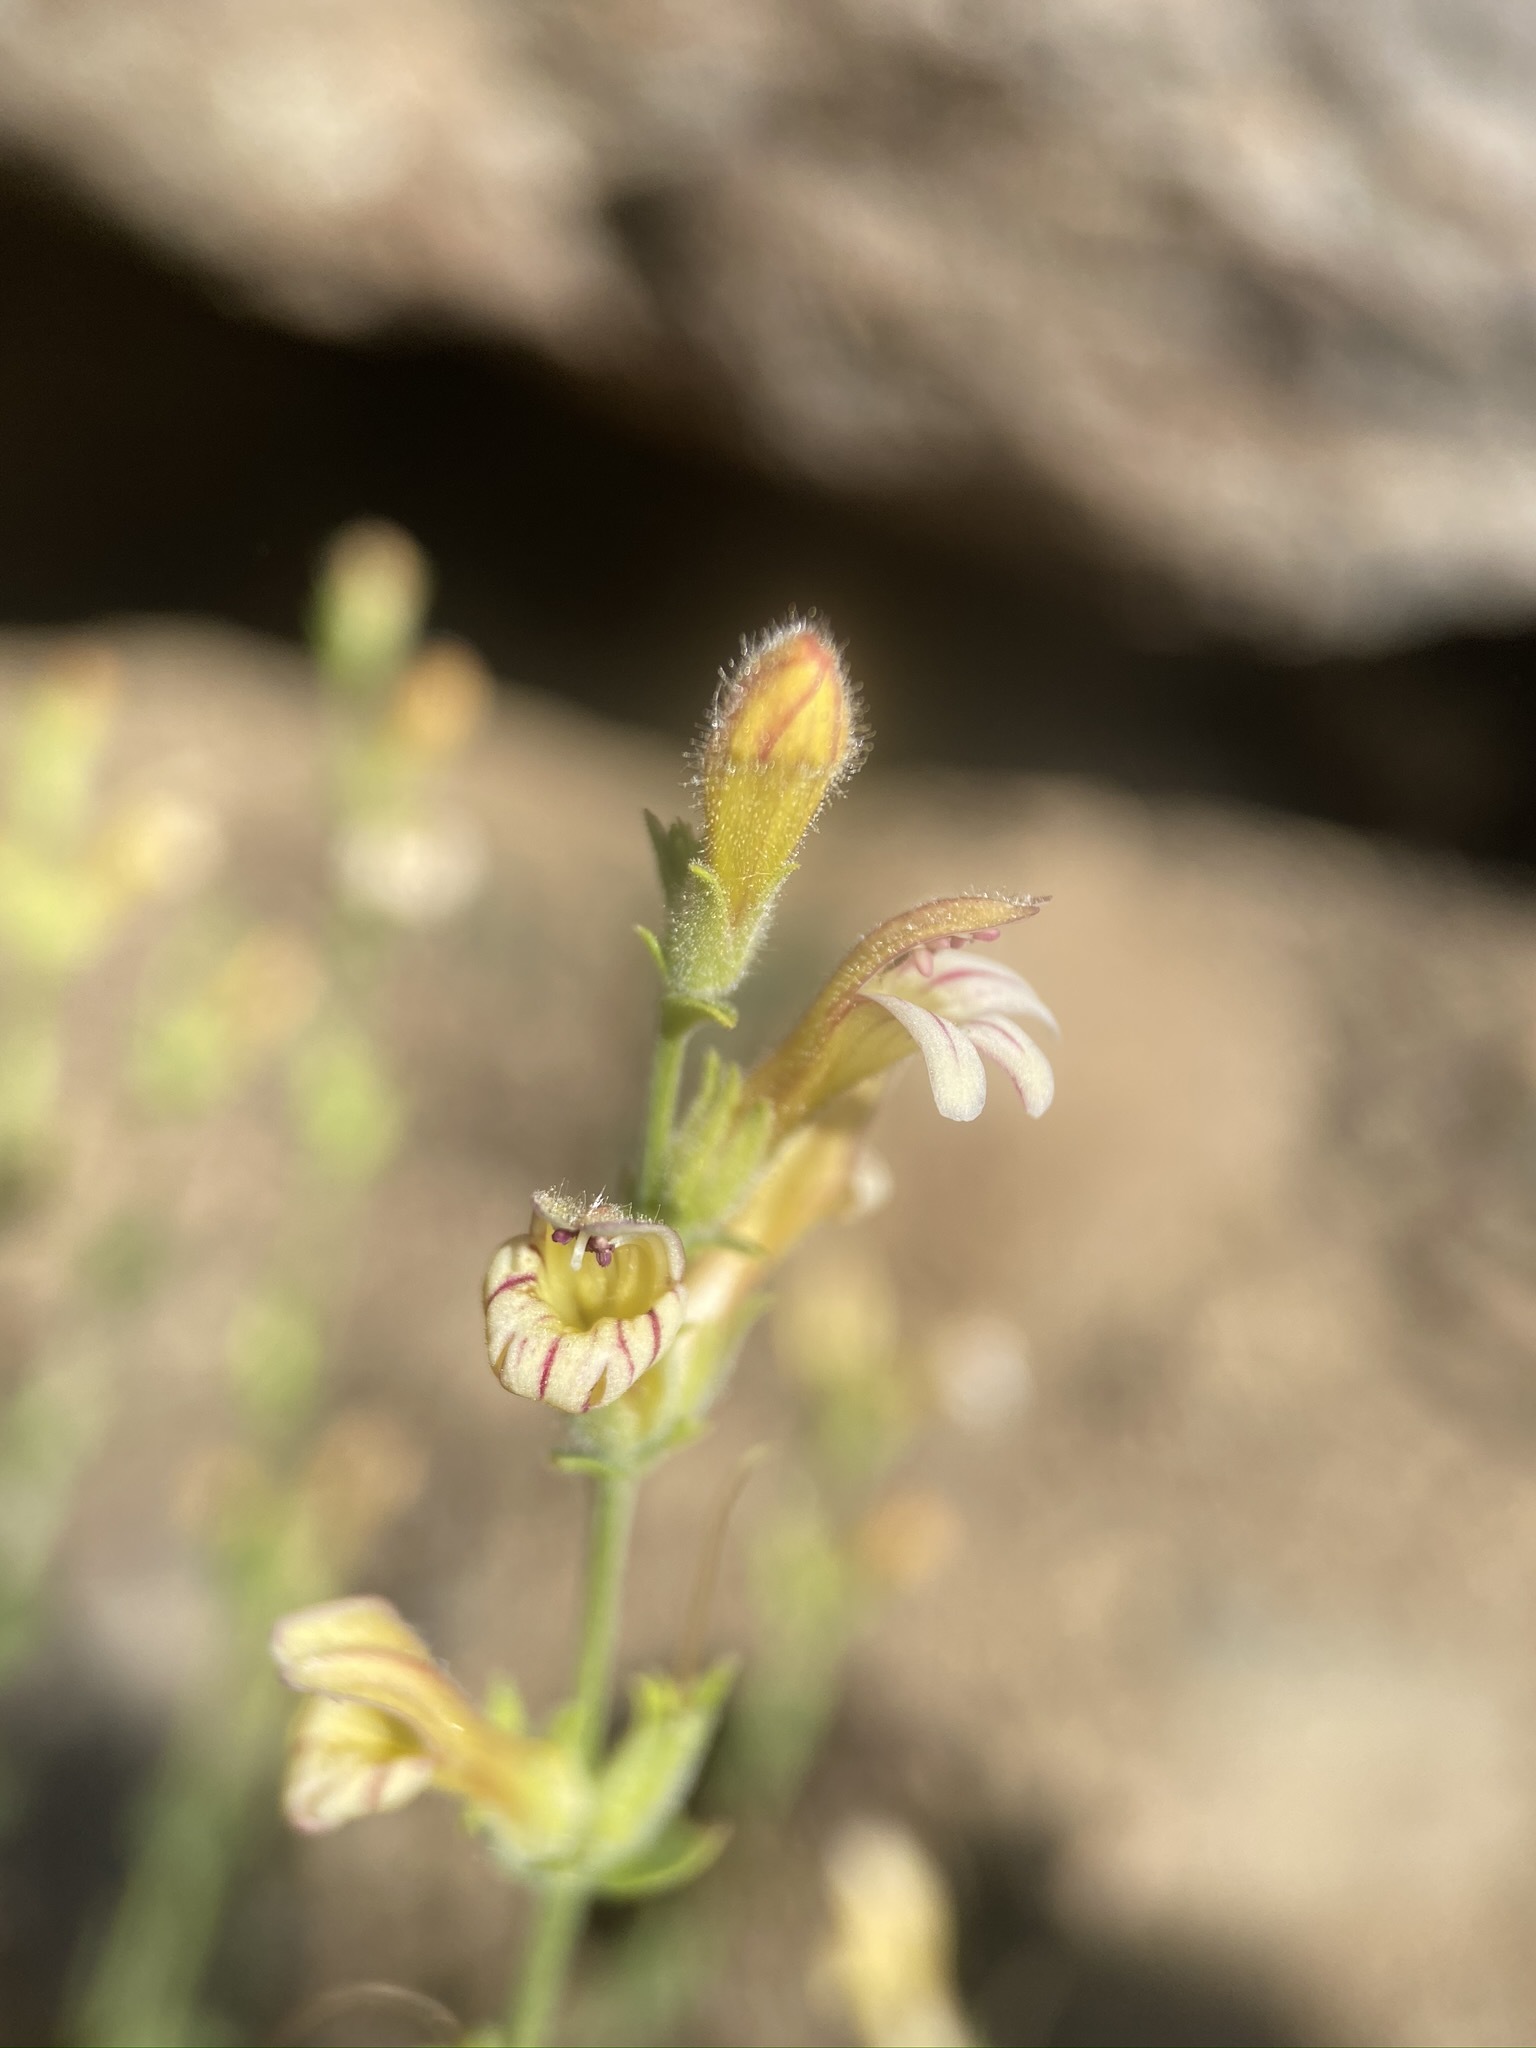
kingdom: Plantae
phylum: Tracheophyta
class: Magnoliopsida
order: Lamiales
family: Plantaginaceae
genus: Keckiella
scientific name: Keckiella rothrockii
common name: Rothrock's keckiella
